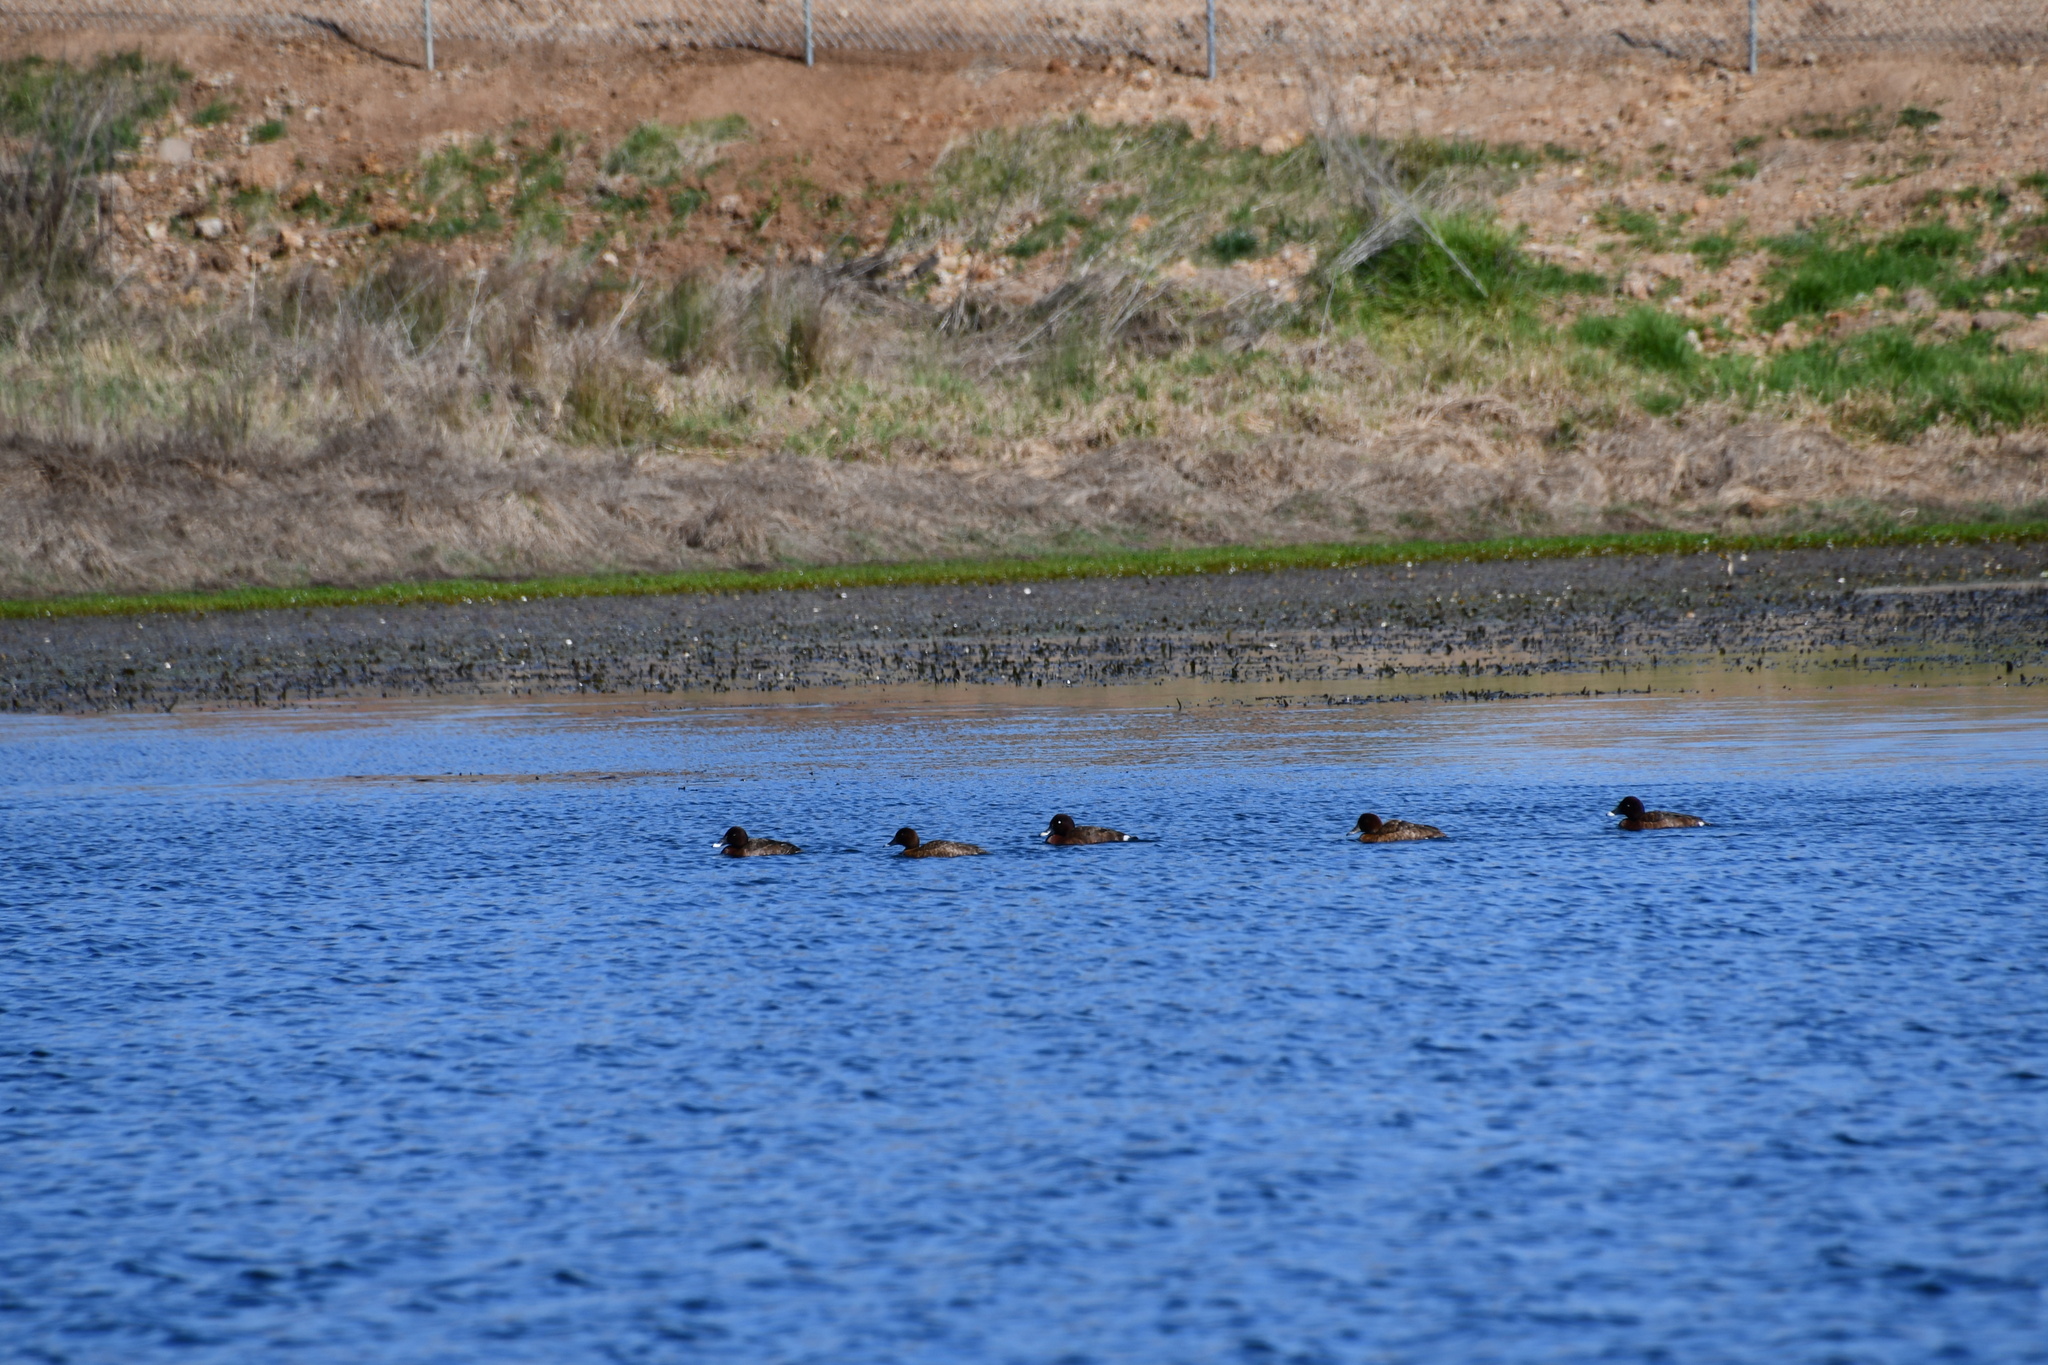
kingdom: Animalia
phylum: Chordata
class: Aves
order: Anseriformes
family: Anatidae
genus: Aythya
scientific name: Aythya australis
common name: Hardhead
